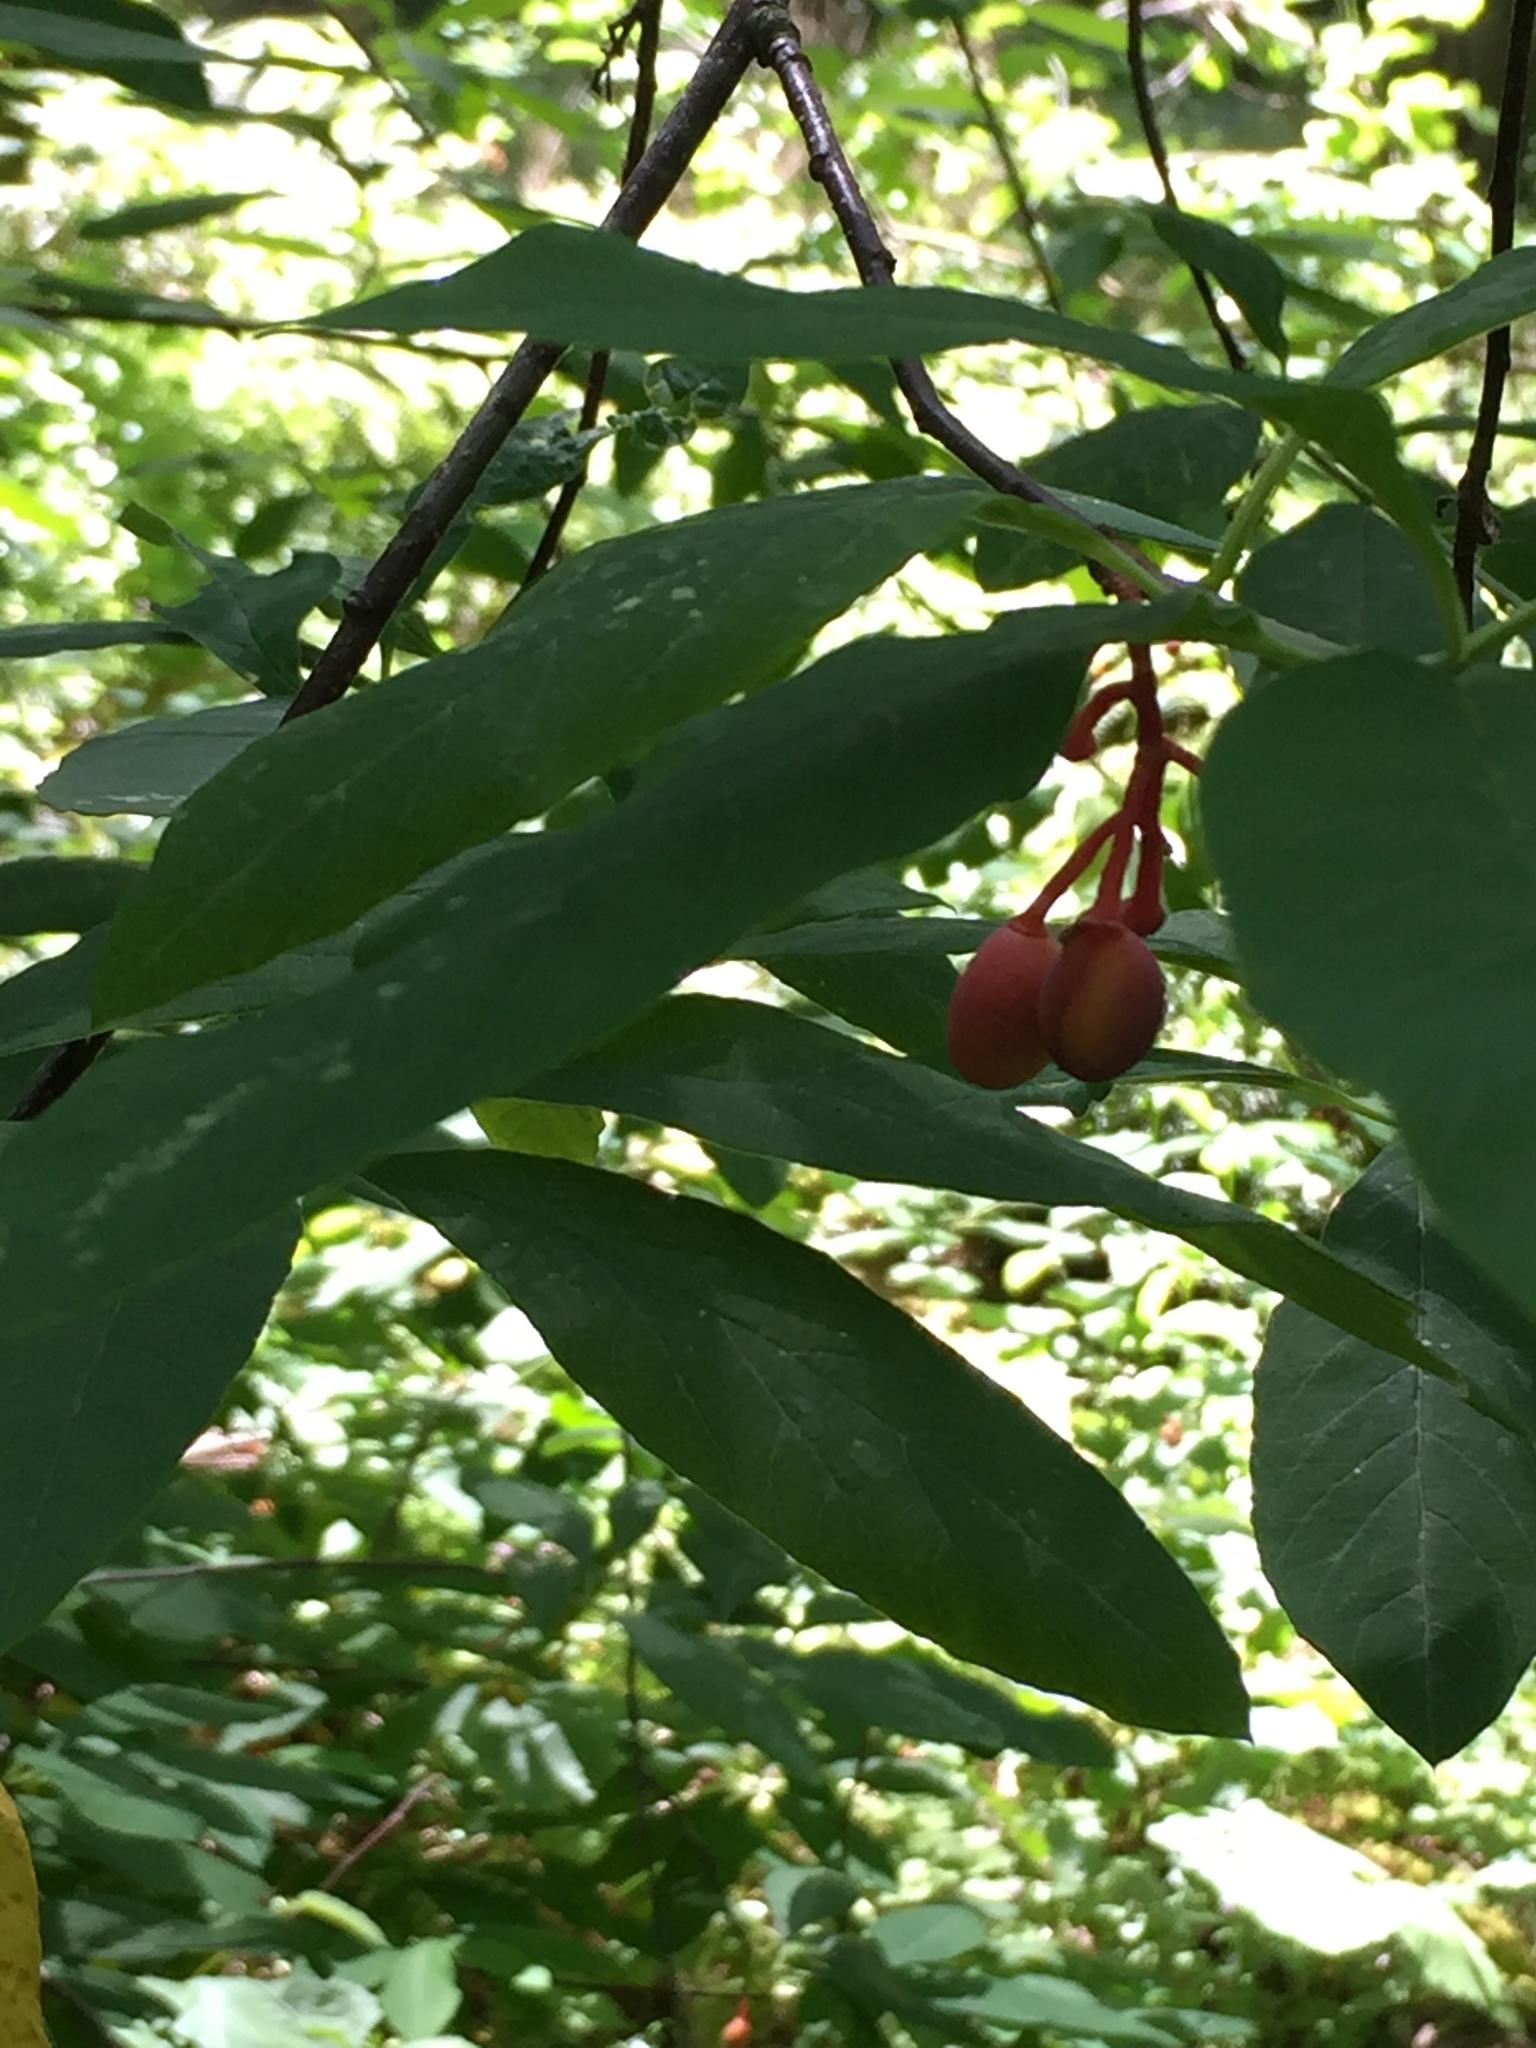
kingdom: Plantae
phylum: Tracheophyta
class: Magnoliopsida
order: Rosales
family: Rosaceae
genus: Oemleria
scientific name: Oemleria cerasiformis
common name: Osoberry
